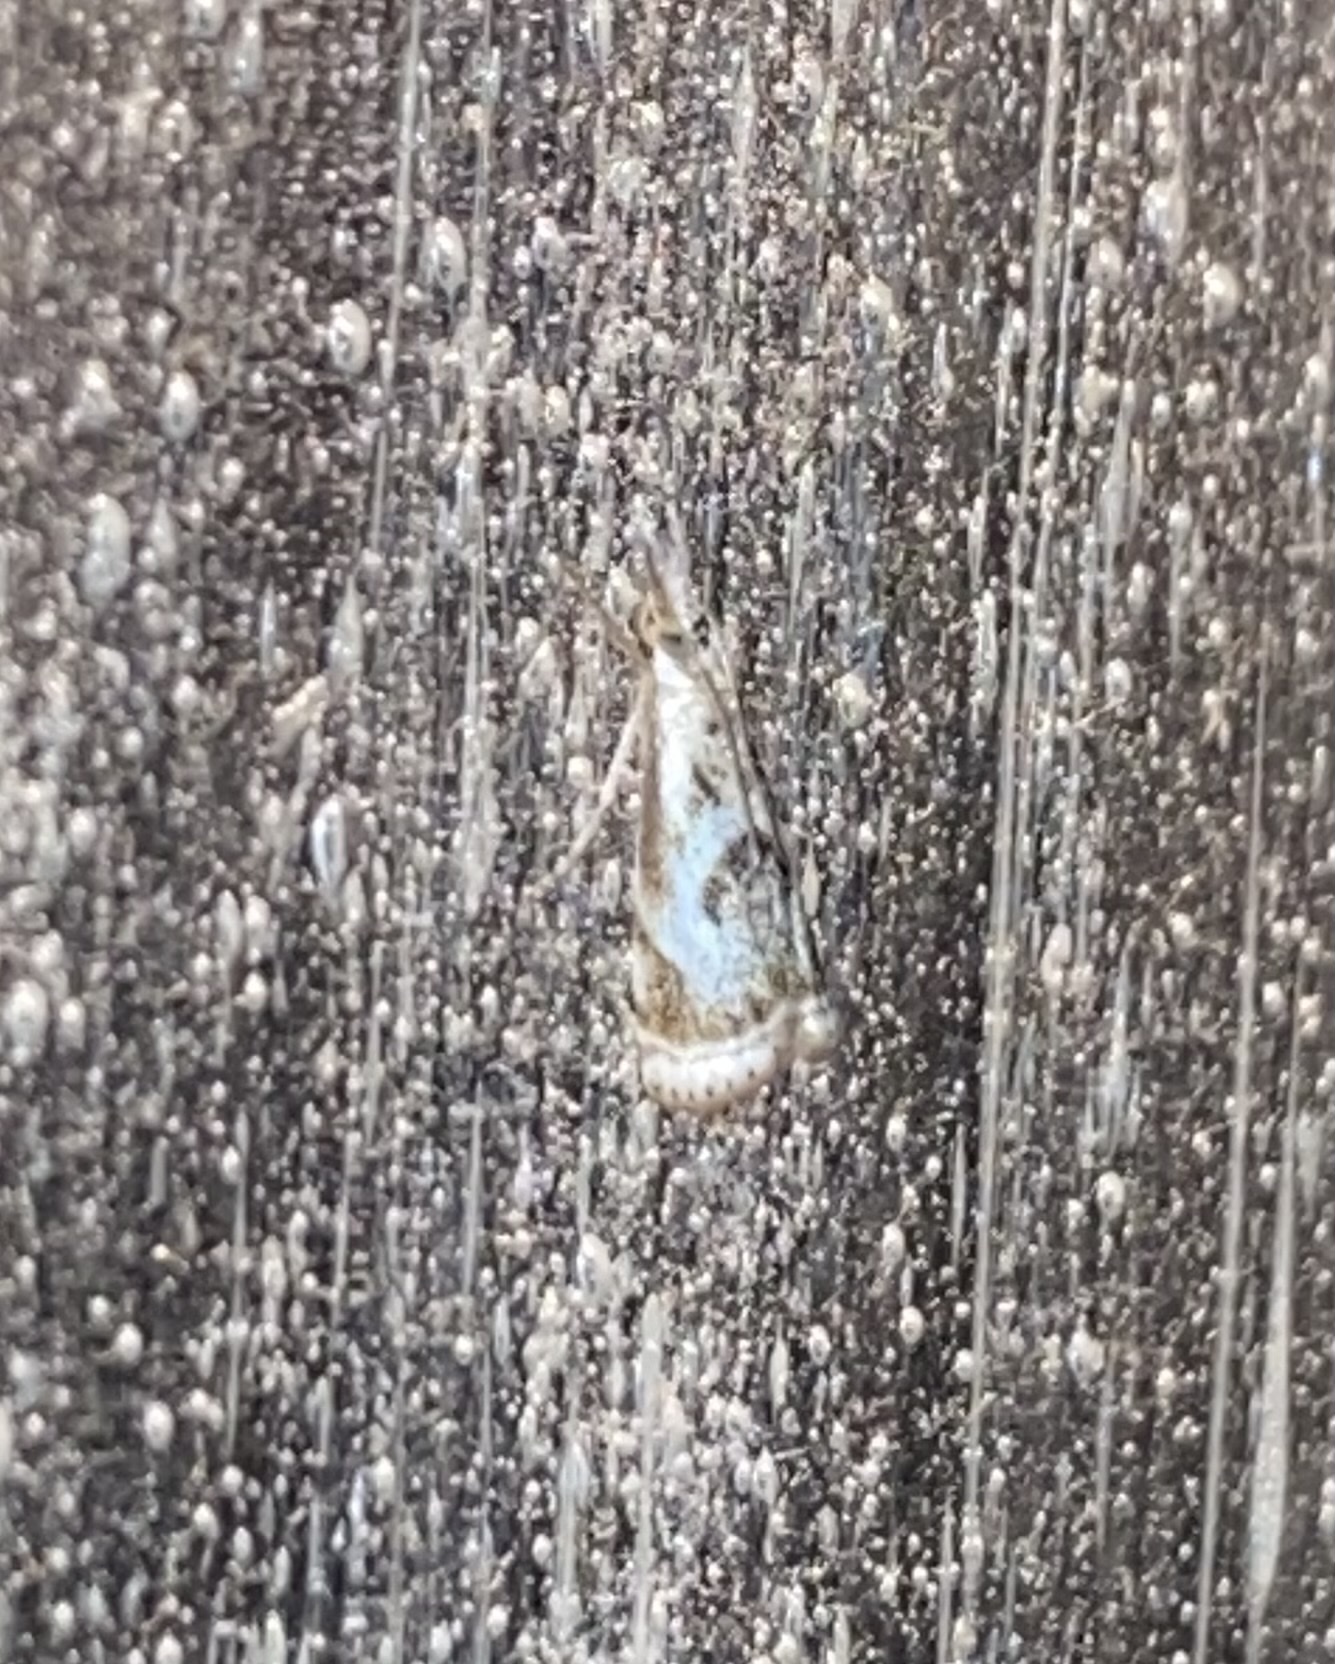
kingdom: Animalia
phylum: Arthropoda
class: Insecta
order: Lepidoptera
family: Crambidae
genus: Microcrambus
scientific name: Microcrambus elegans
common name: Elegant grass-veneer
